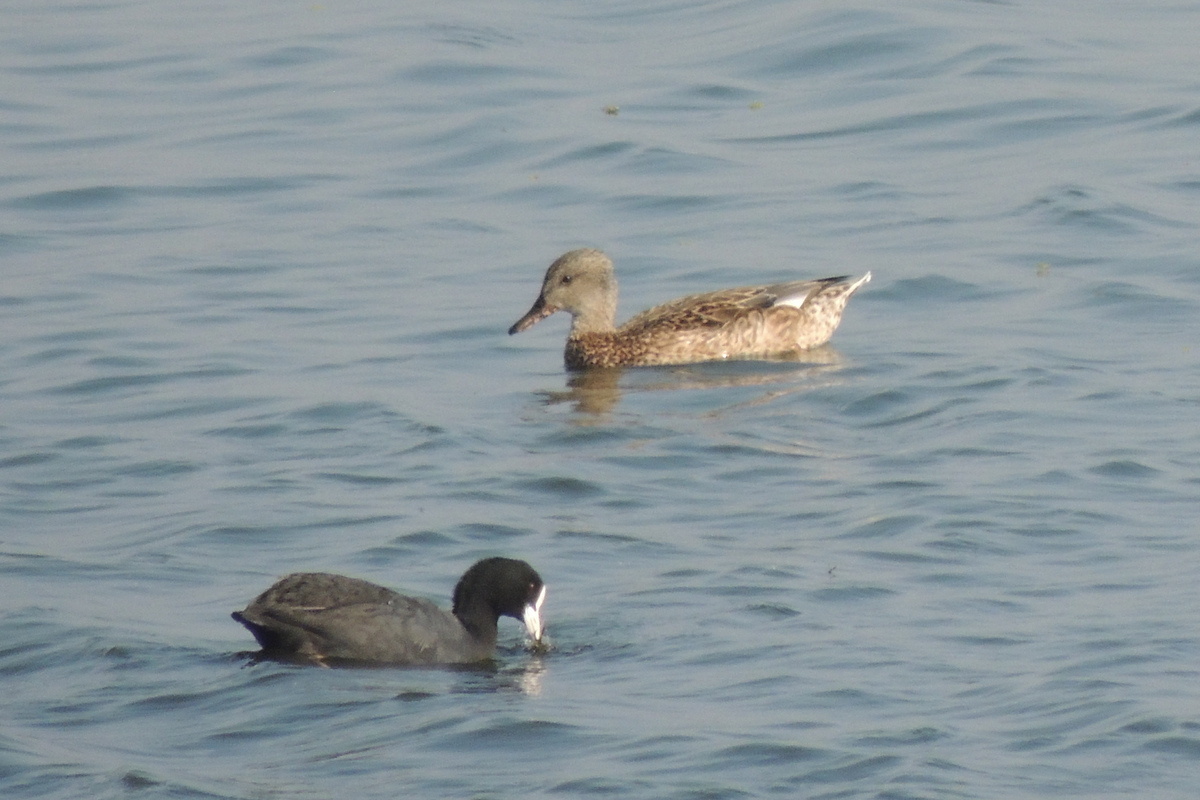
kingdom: Animalia
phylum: Chordata
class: Aves
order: Anseriformes
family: Anatidae
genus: Mareca
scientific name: Mareca strepera
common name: Gadwall
